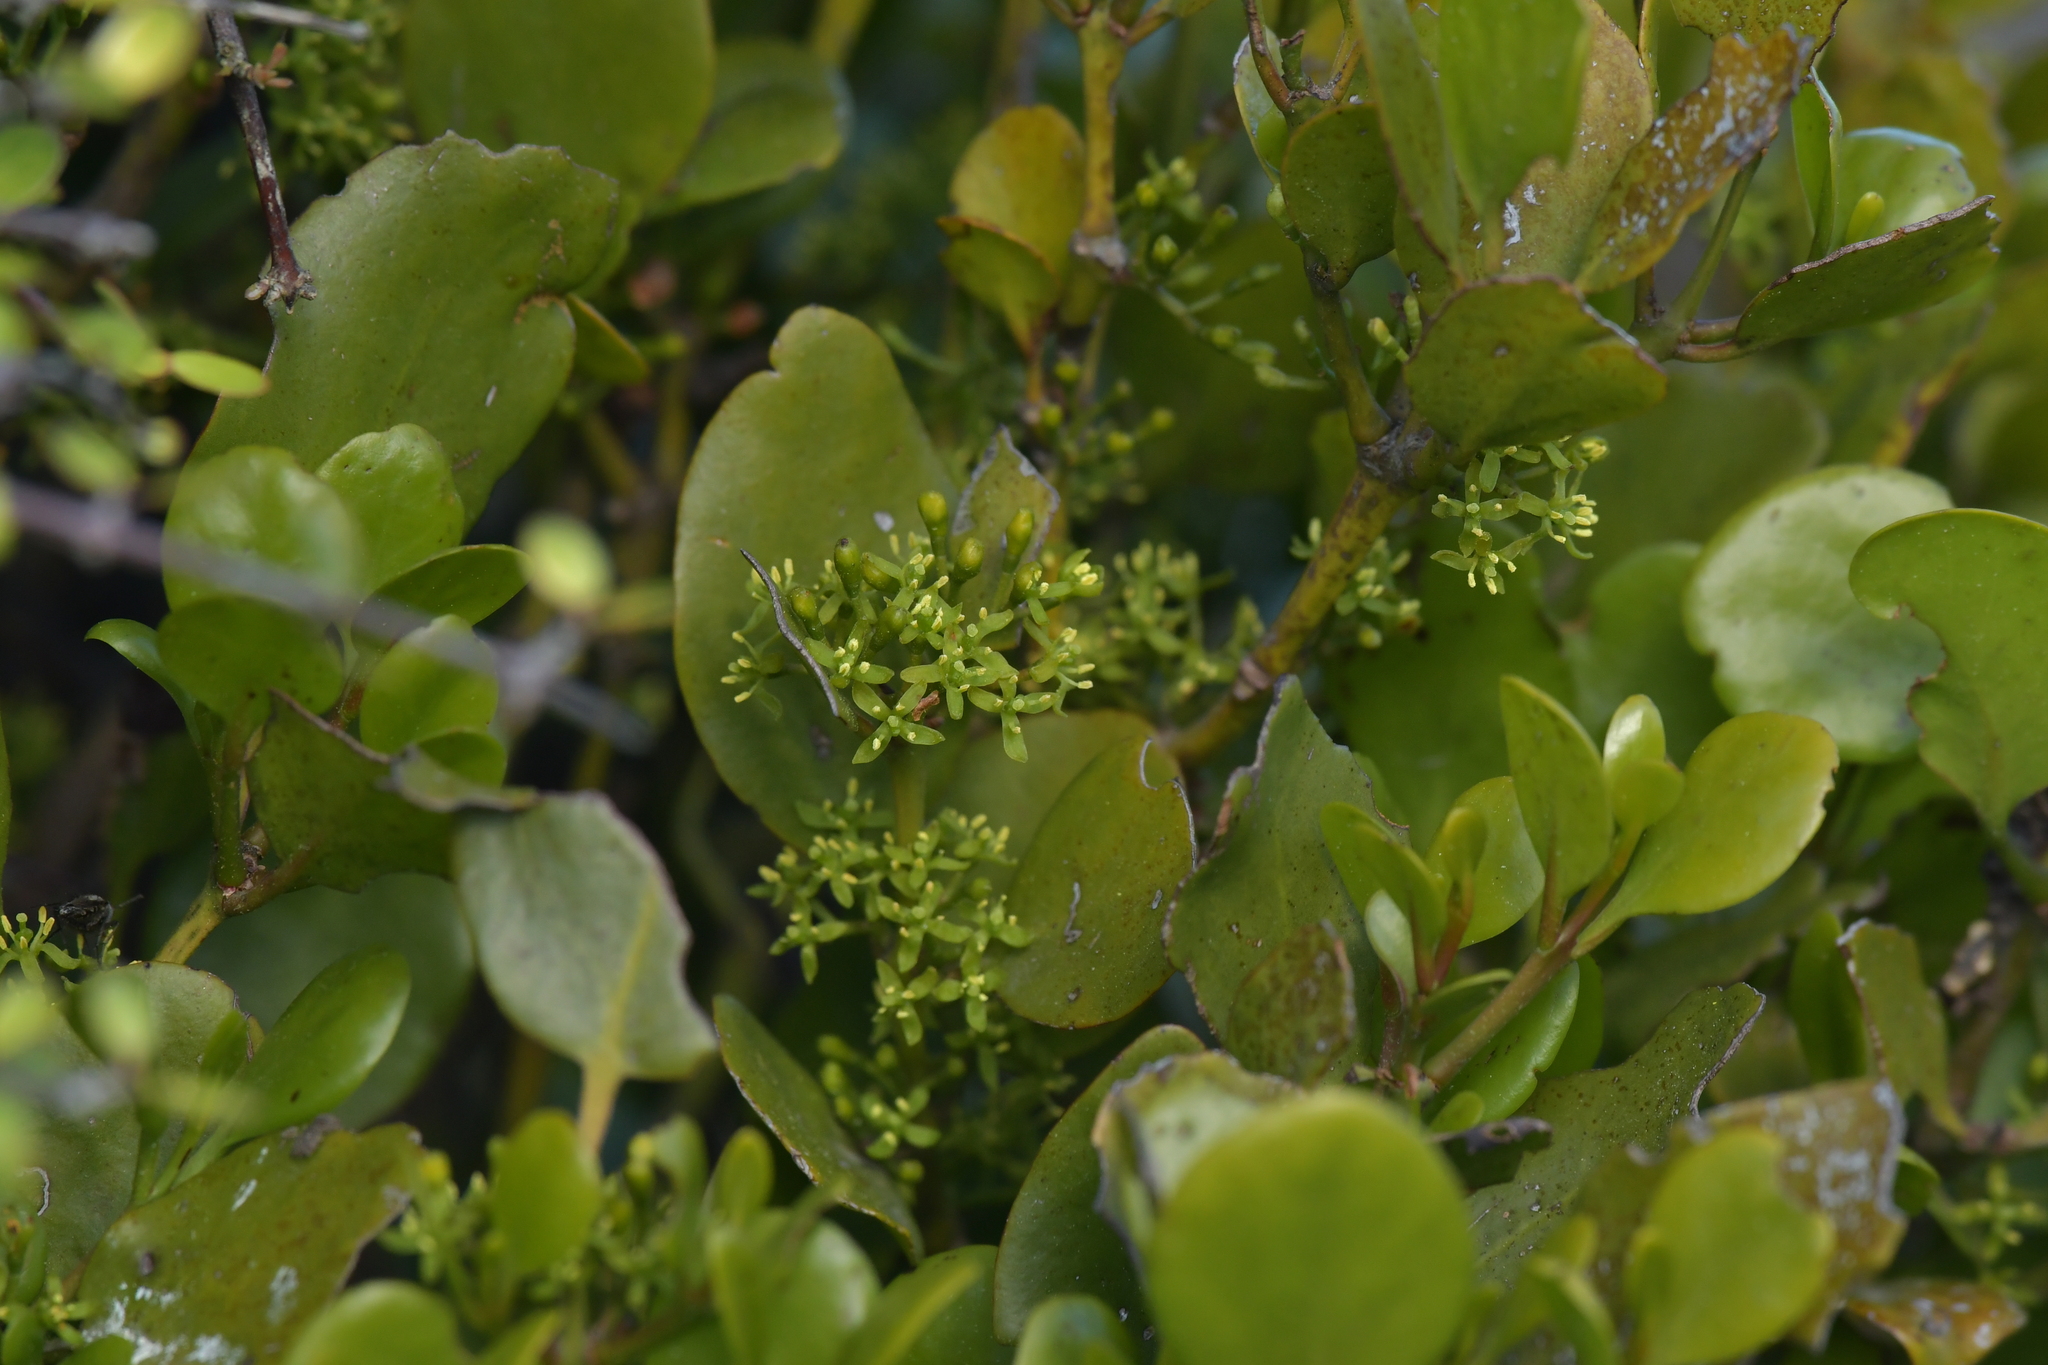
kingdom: Plantae
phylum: Tracheophyta
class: Magnoliopsida
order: Santalales
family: Loranthaceae
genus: Ileostylus
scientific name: Ileostylus micranthus
